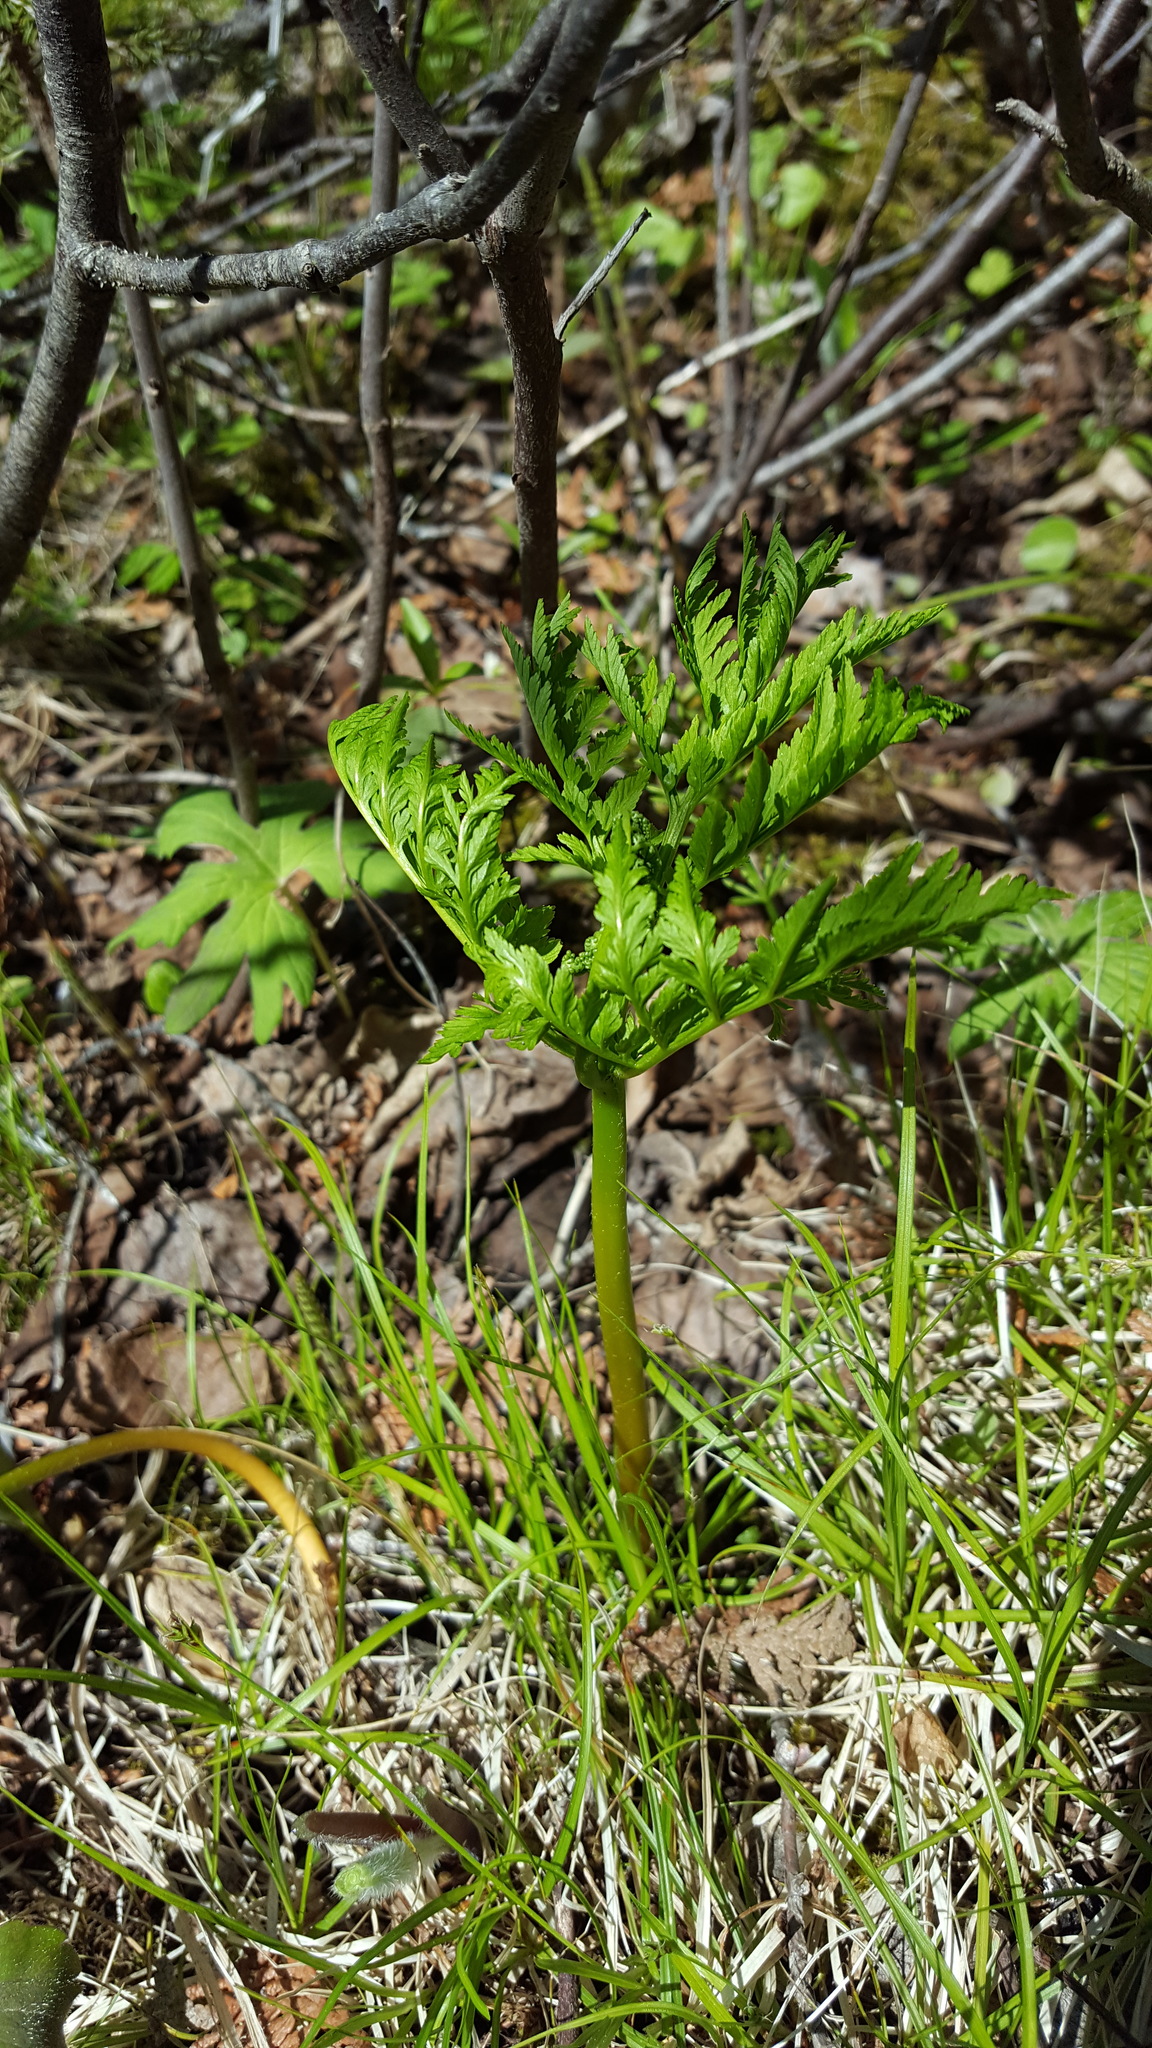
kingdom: Plantae
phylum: Tracheophyta
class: Polypodiopsida
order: Ophioglossales
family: Ophioglossaceae
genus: Botrypus
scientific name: Botrypus virginianus
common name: Common grapefern
